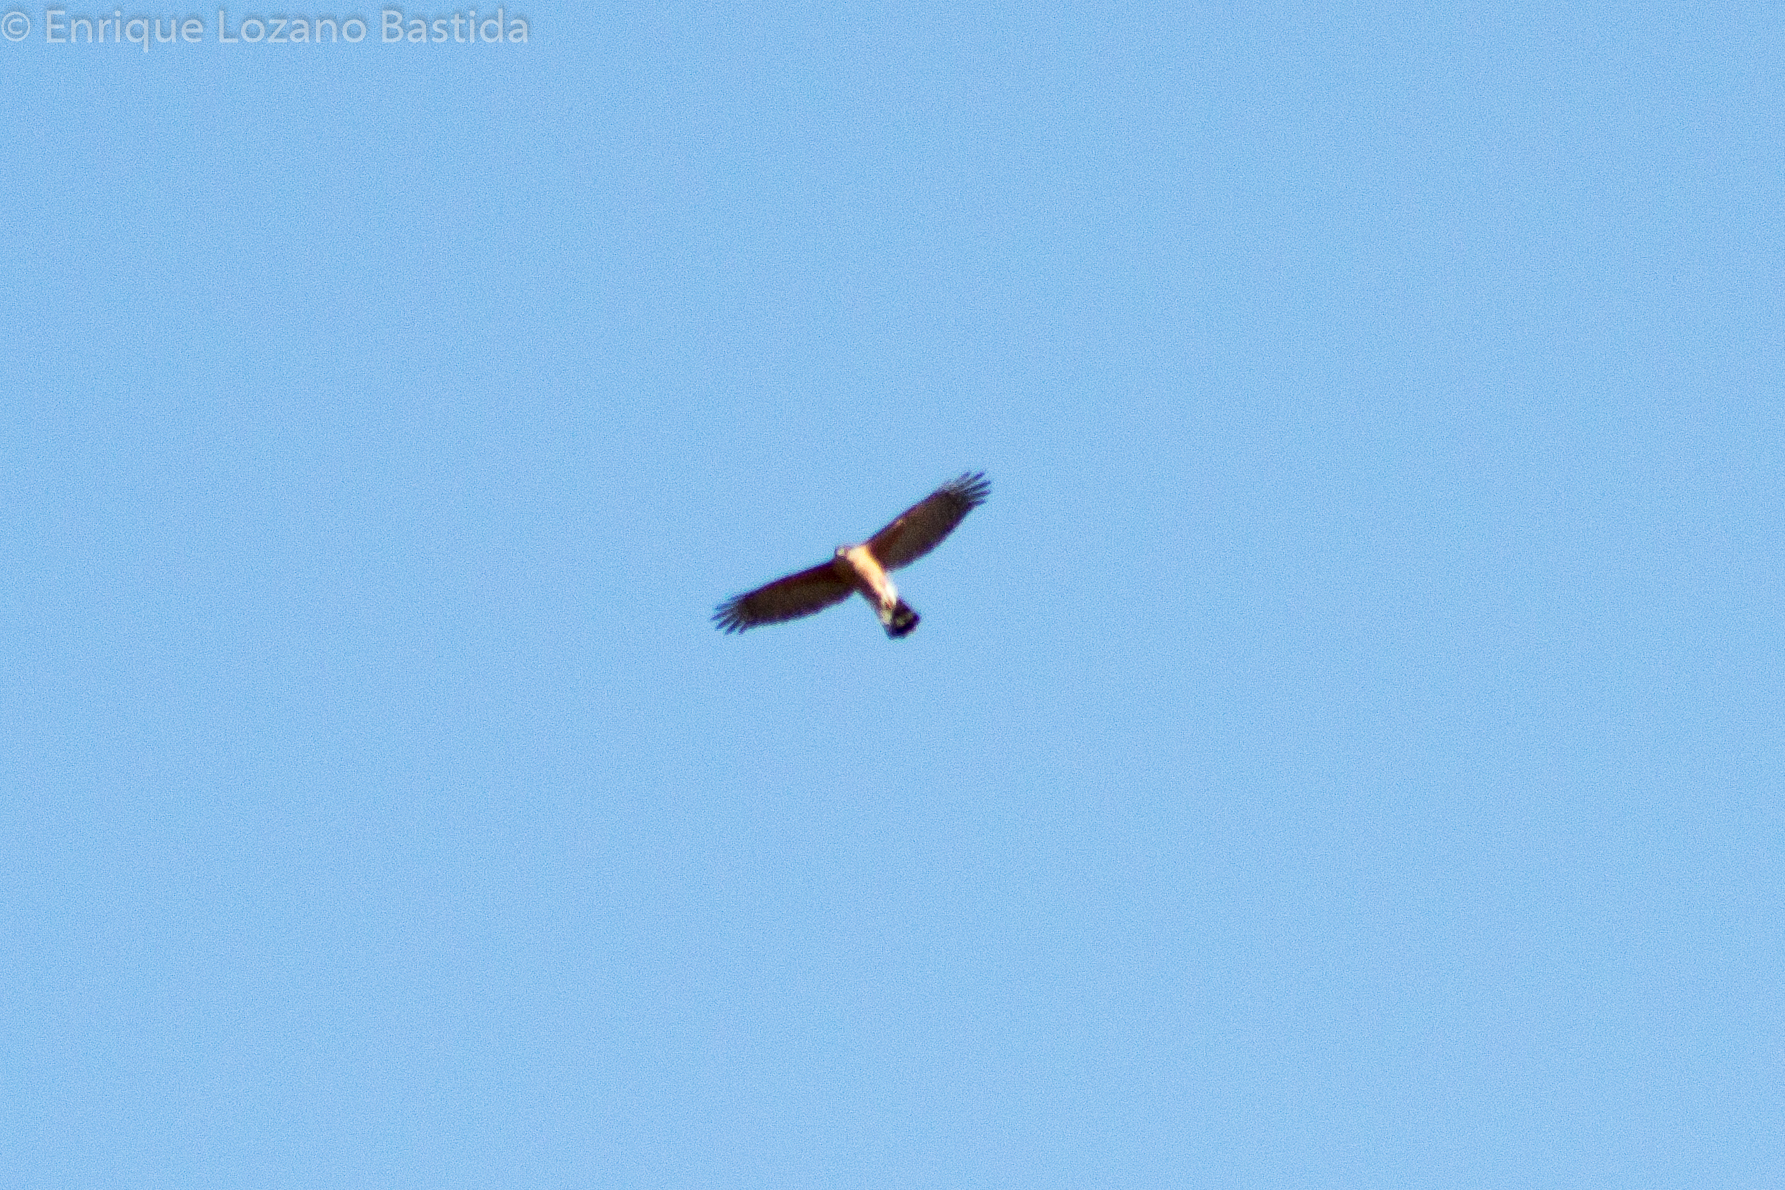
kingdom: Animalia
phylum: Chordata
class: Aves
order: Accipitriformes
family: Accipitridae
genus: Accipiter
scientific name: Accipiter cooperii
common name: Cooper's hawk
